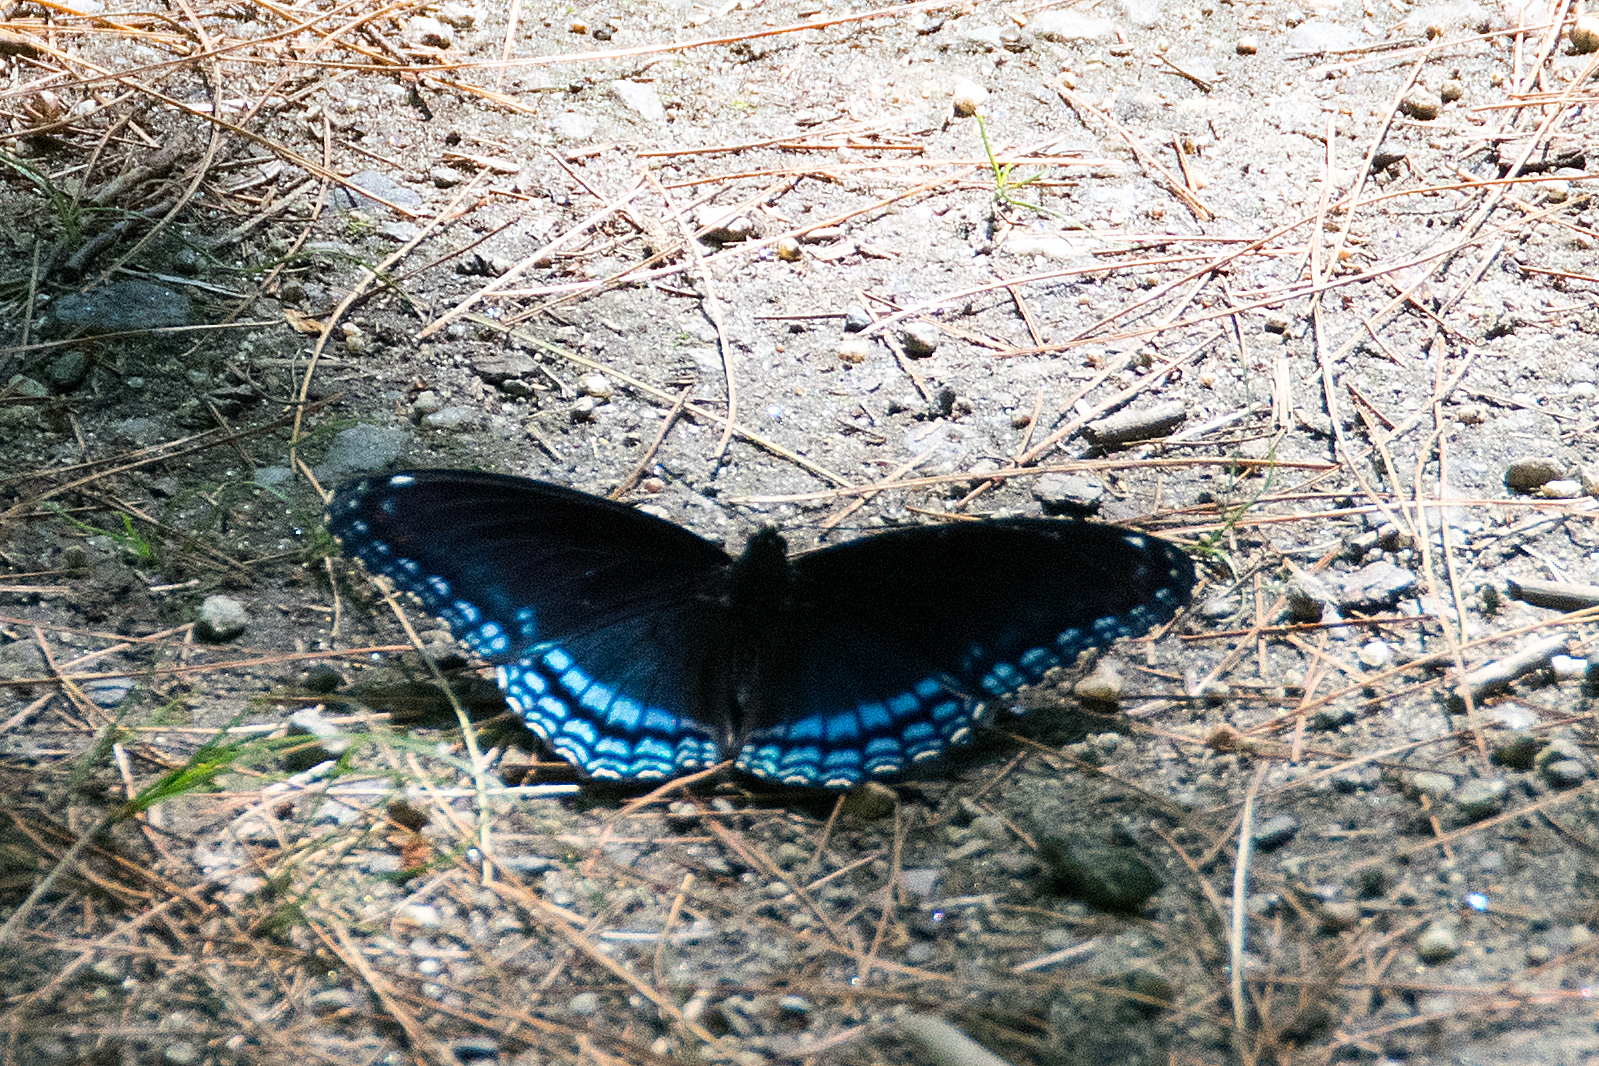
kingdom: Animalia
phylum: Arthropoda
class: Insecta
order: Lepidoptera
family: Nymphalidae
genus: Limenitis
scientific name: Limenitis astyanax
